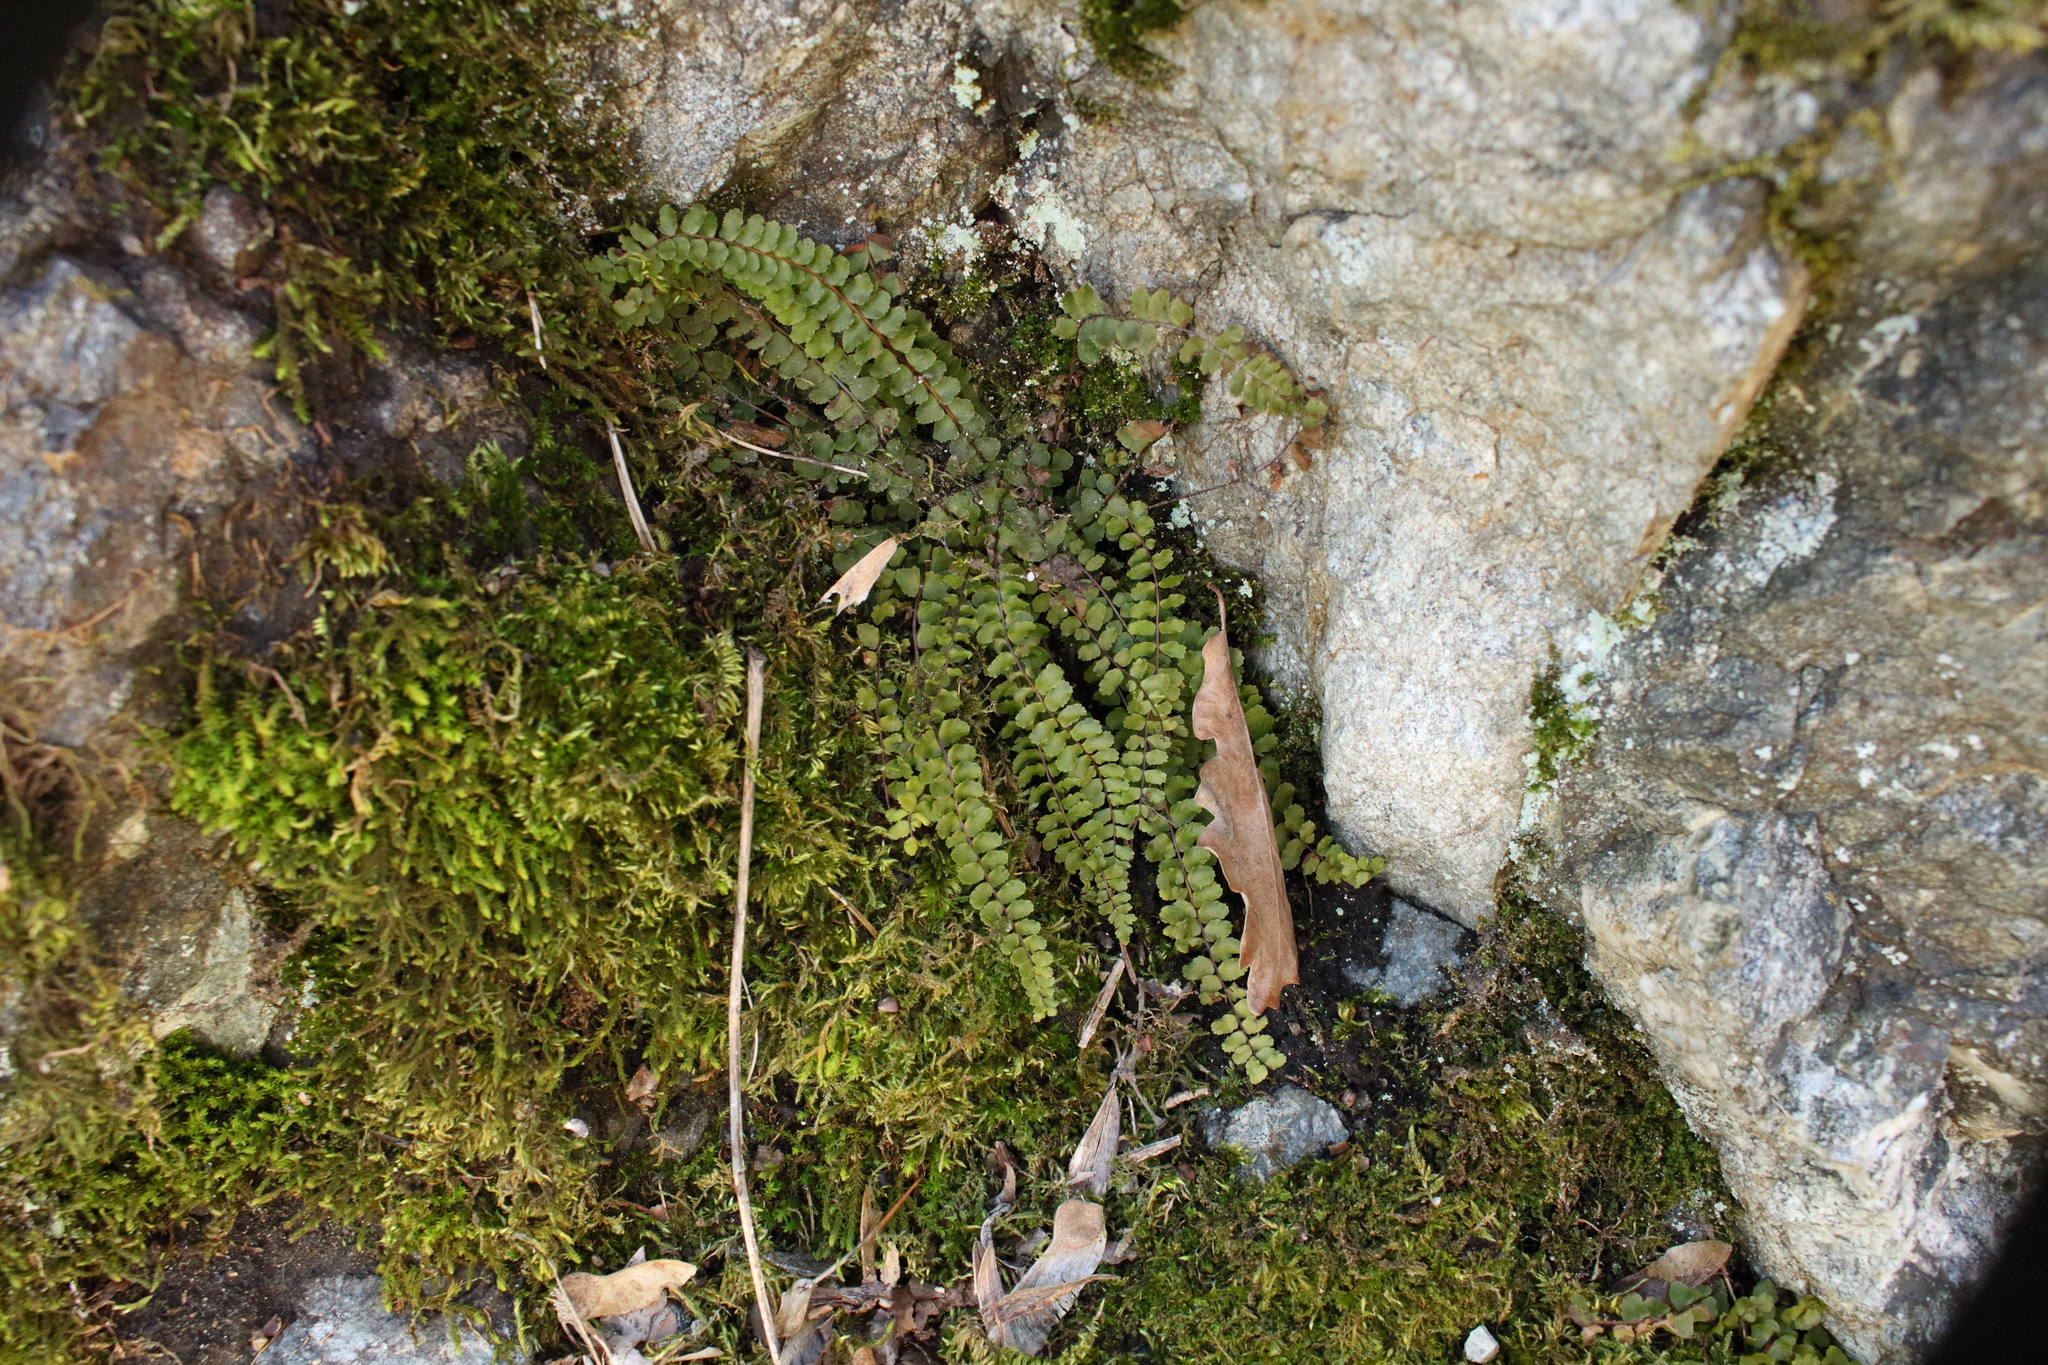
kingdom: Plantae
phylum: Tracheophyta
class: Polypodiopsida
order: Polypodiales
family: Aspleniaceae
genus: Asplenium
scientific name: Asplenium trichomanes
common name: Maidenhair spleenwort
